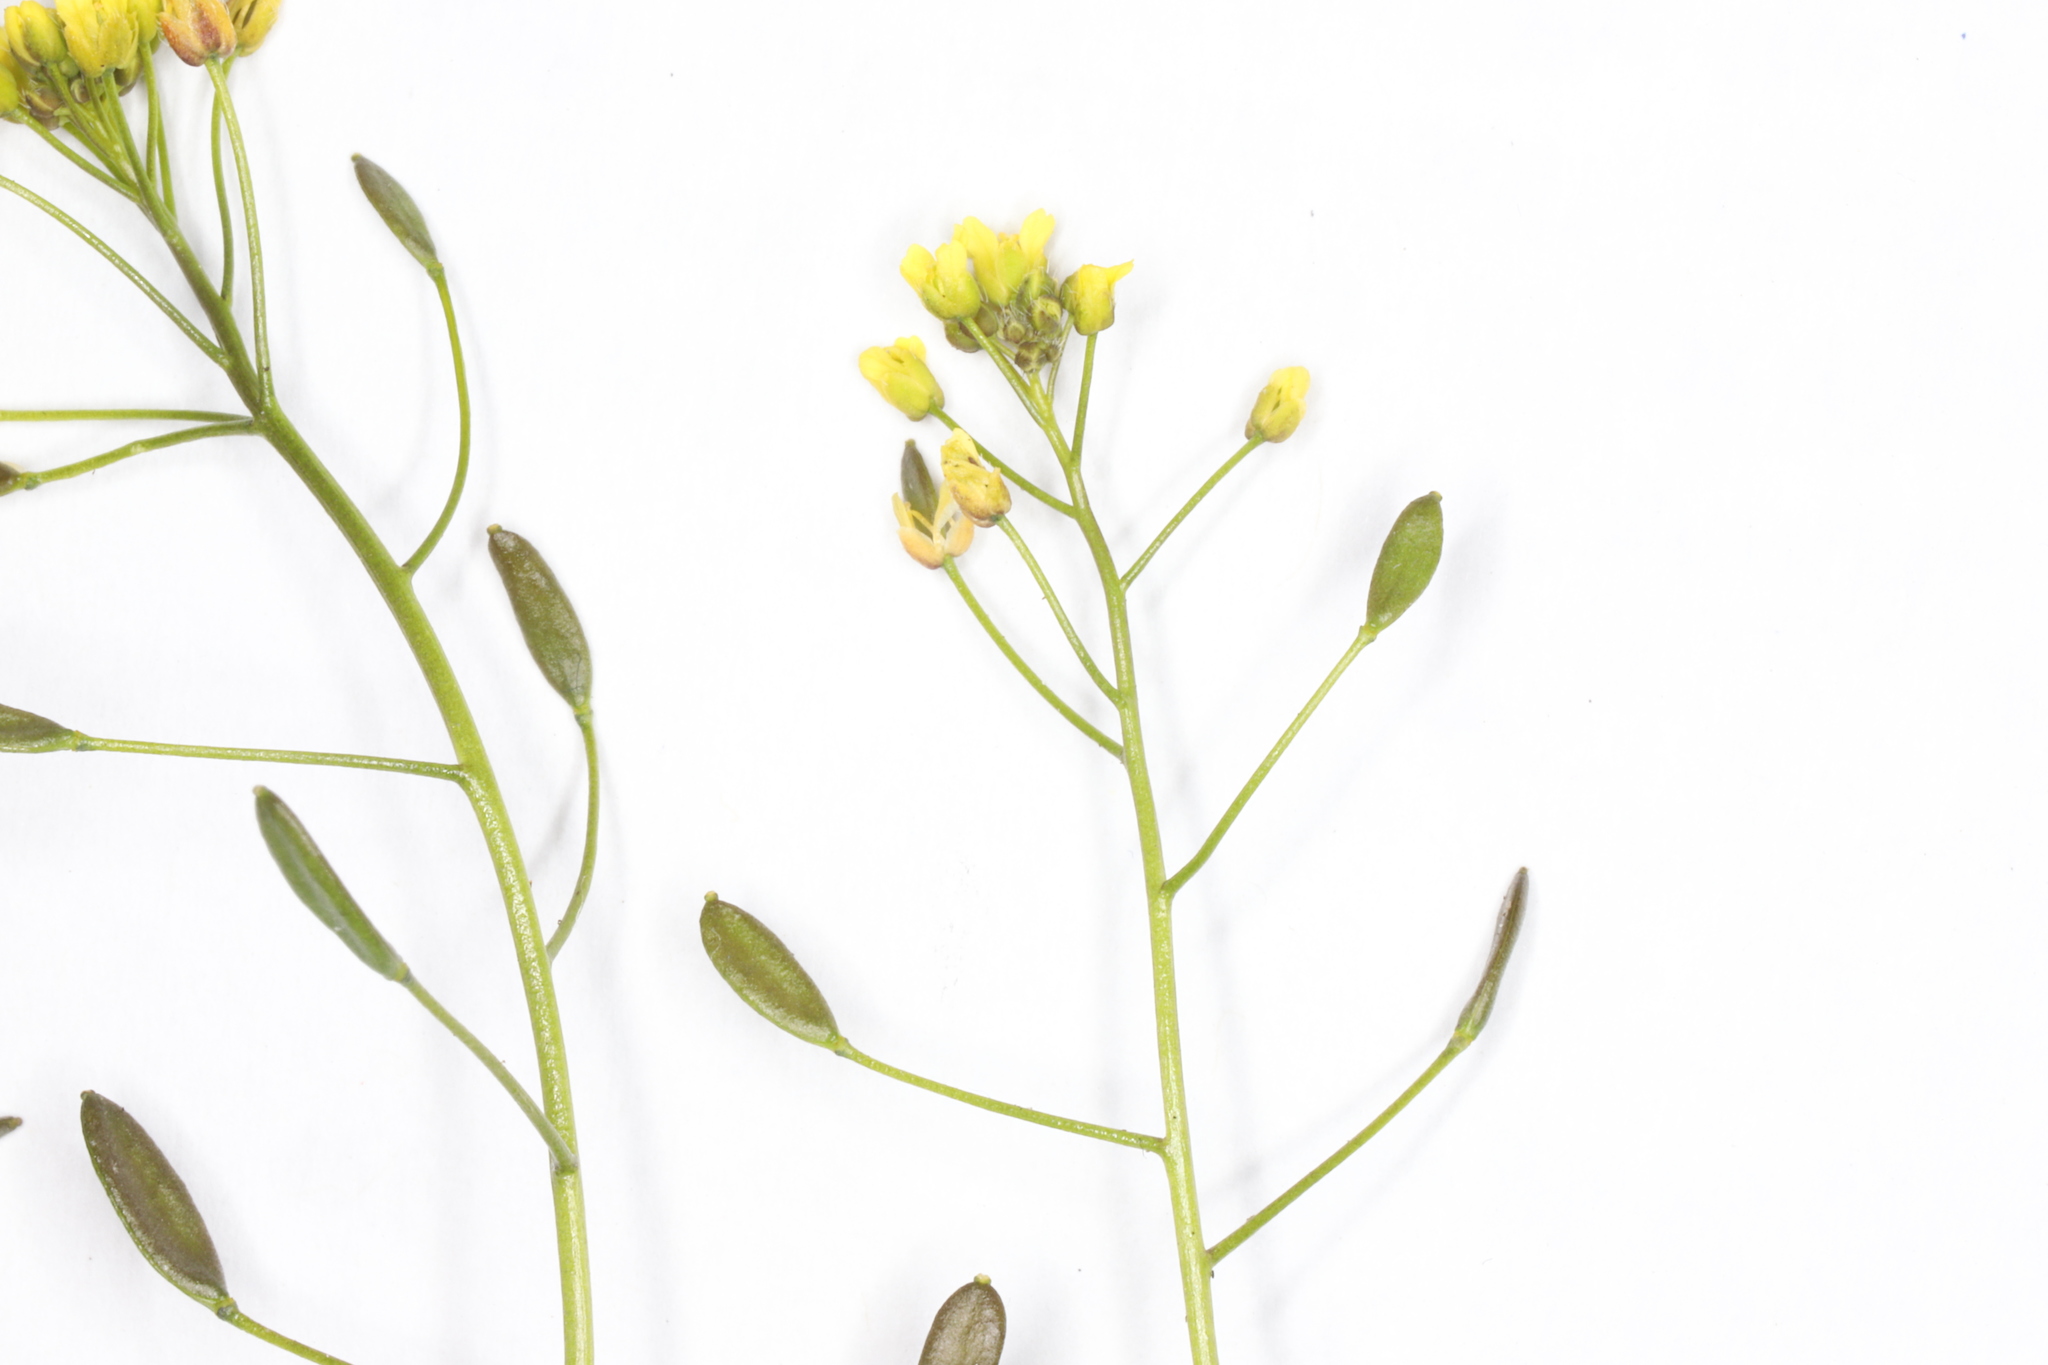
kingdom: Plantae
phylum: Tracheophyta
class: Magnoliopsida
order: Brassicales
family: Brassicaceae
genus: Draba
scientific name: Draba nemorosa
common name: Wood whitlow-grass
